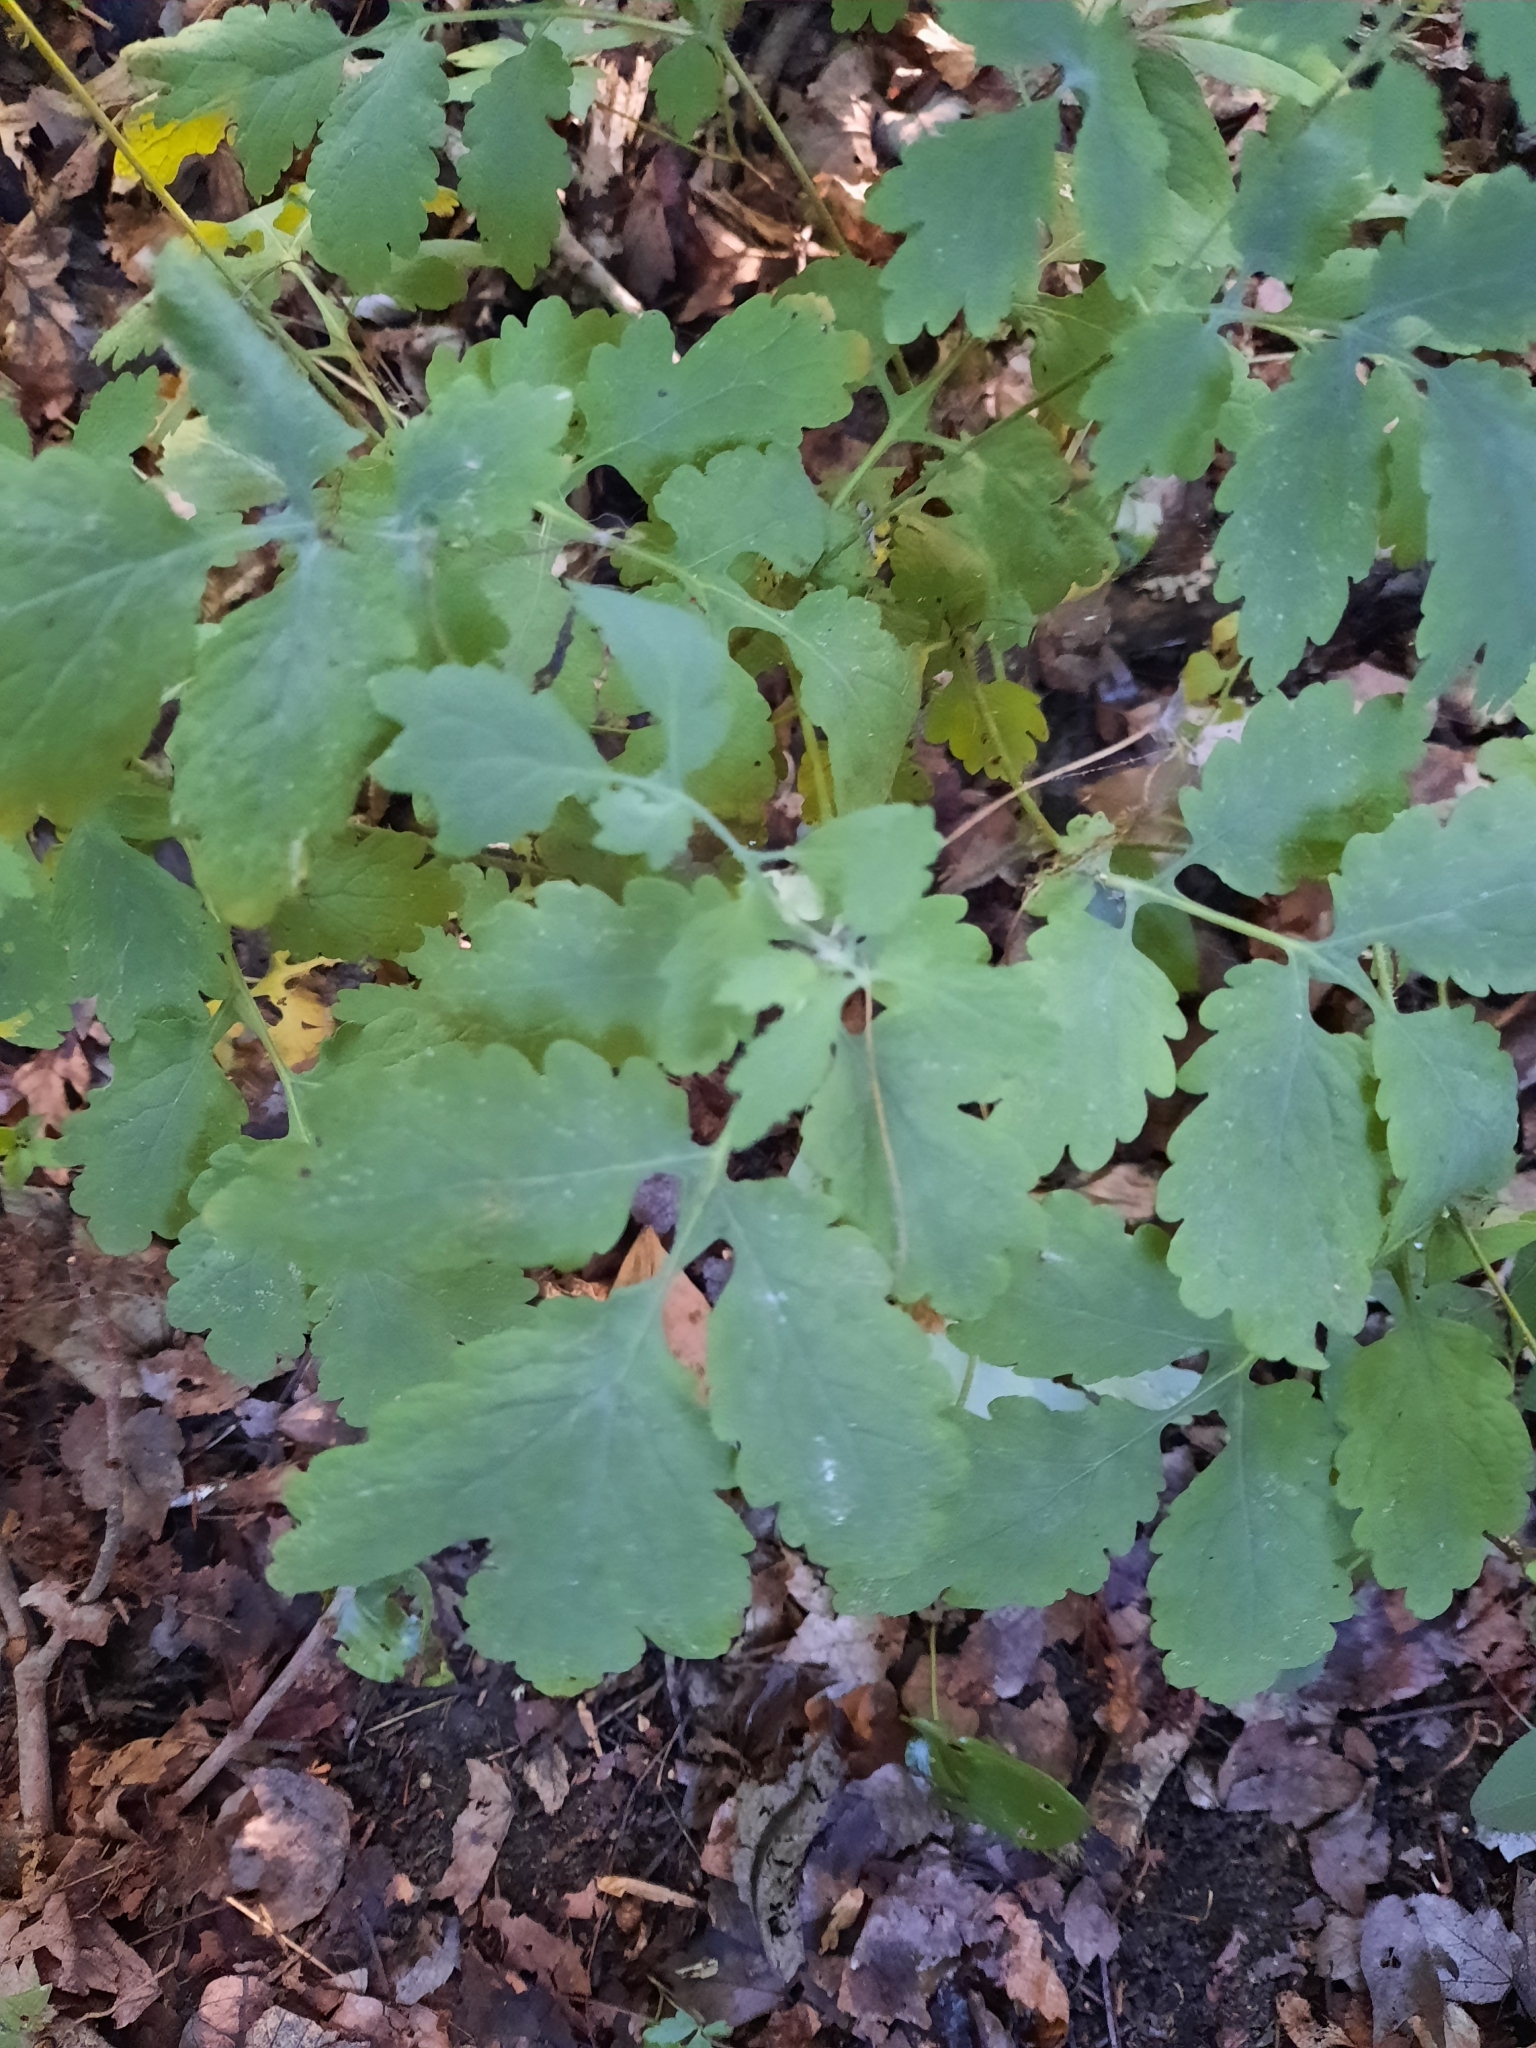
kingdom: Plantae
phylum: Tracheophyta
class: Magnoliopsida
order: Ranunculales
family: Papaveraceae
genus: Chelidonium
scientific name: Chelidonium majus
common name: Greater celandine
